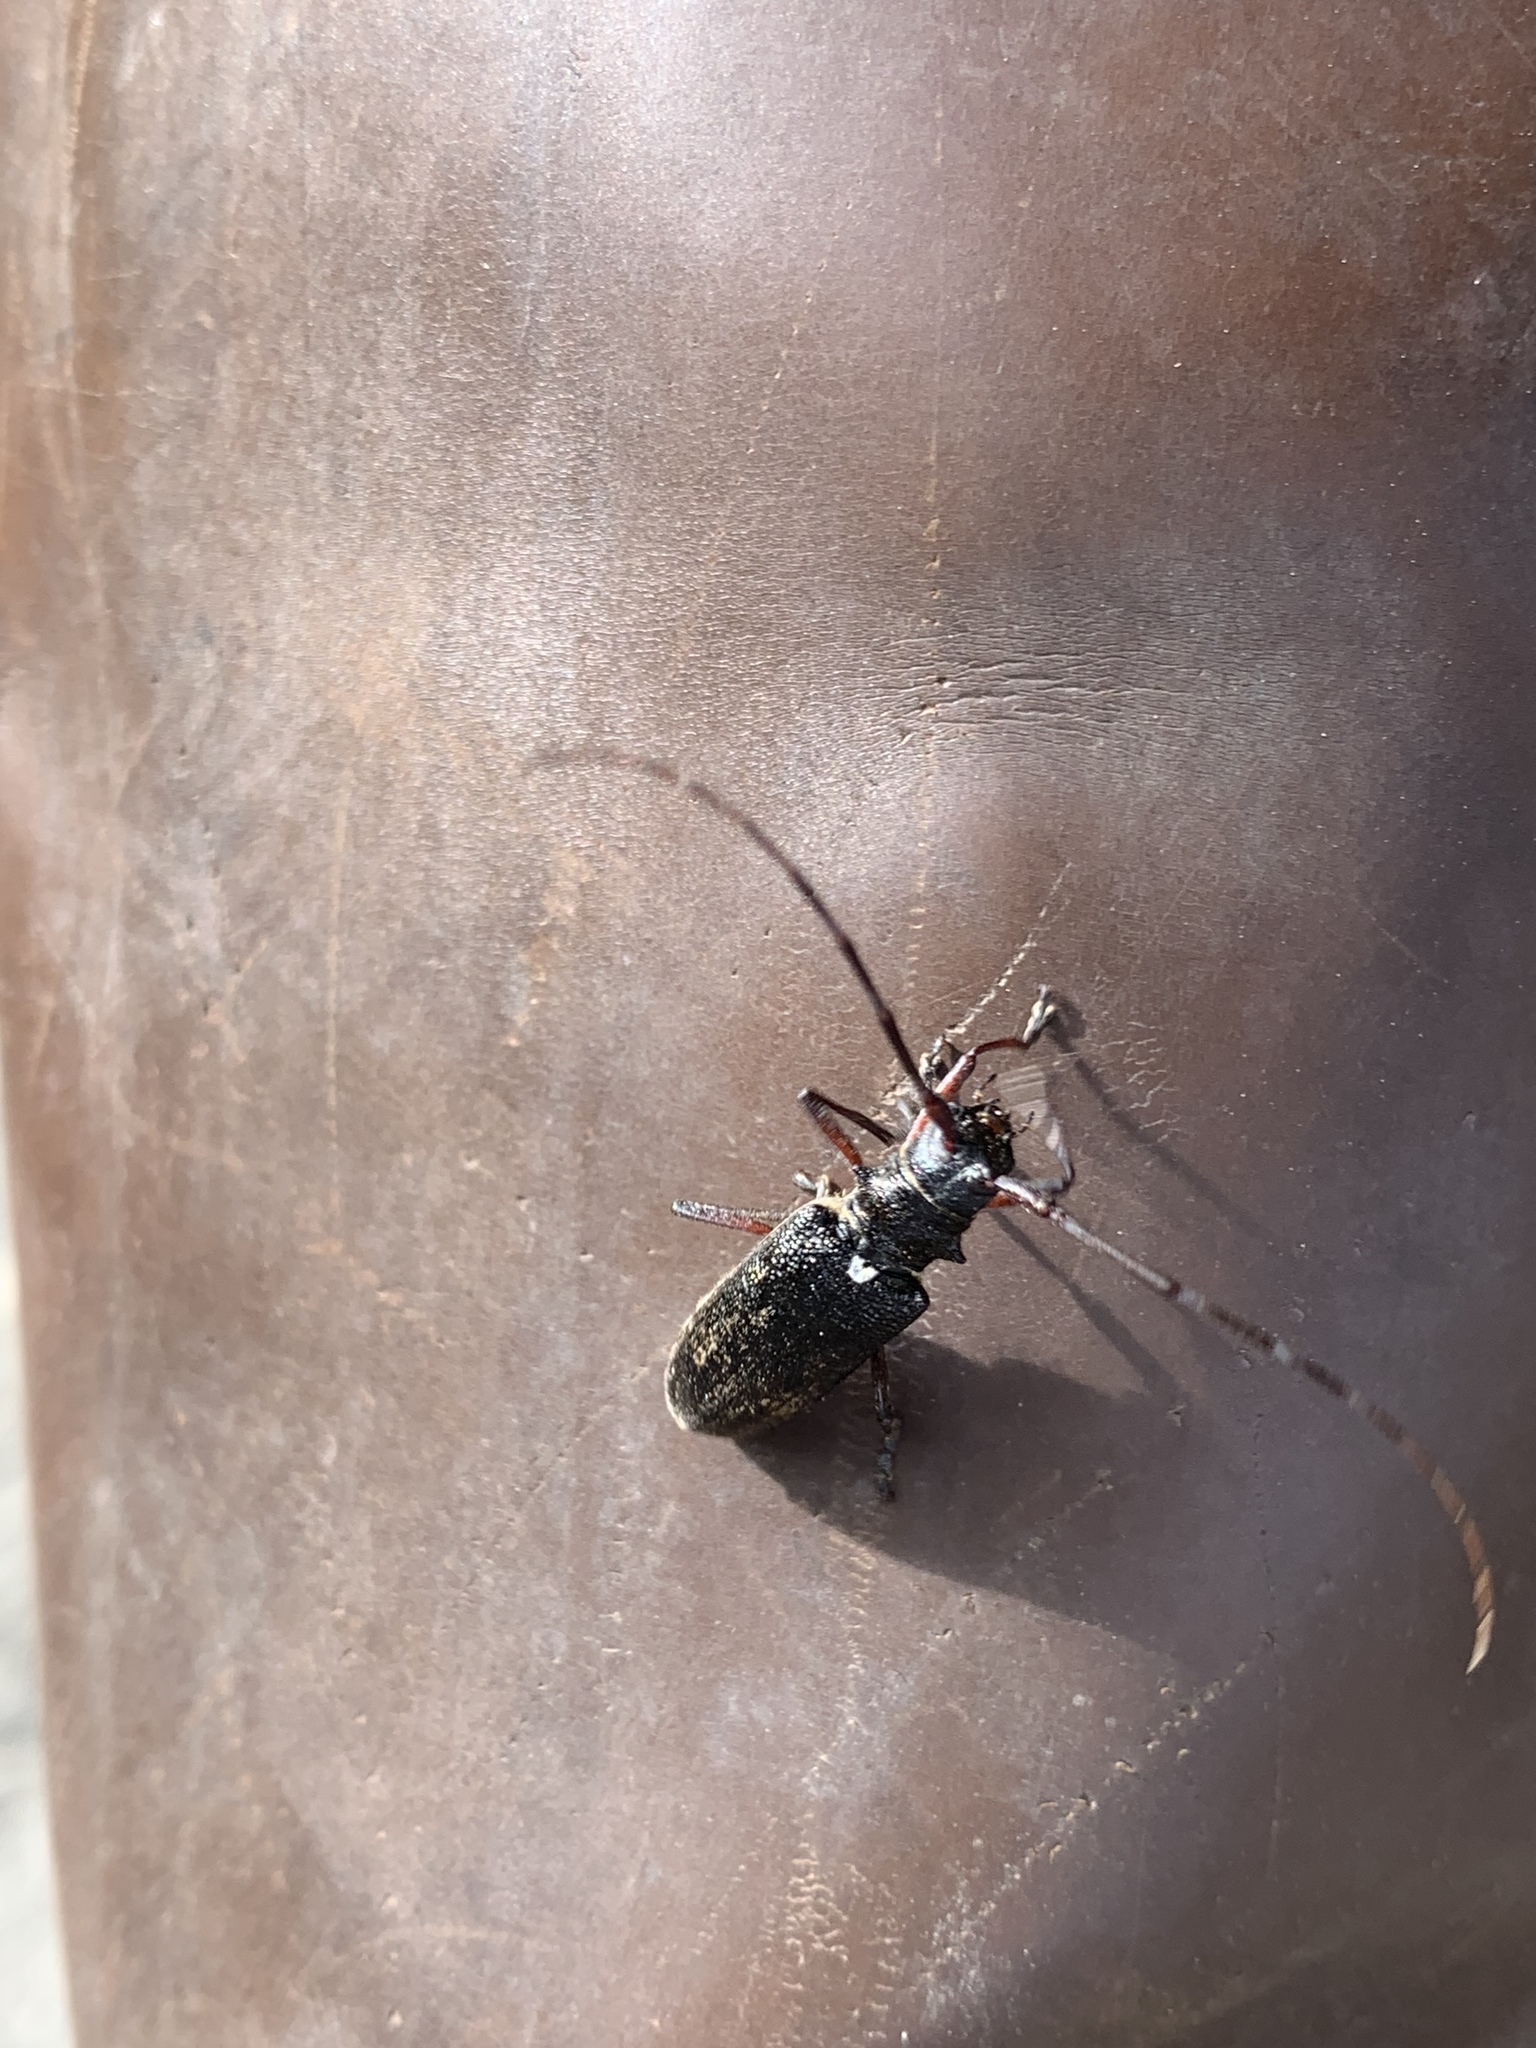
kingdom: Animalia
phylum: Arthropoda
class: Insecta
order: Coleoptera
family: Cerambycidae
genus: Monochamus
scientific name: Monochamus scutellatus
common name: White-spotted sawyer beetle
